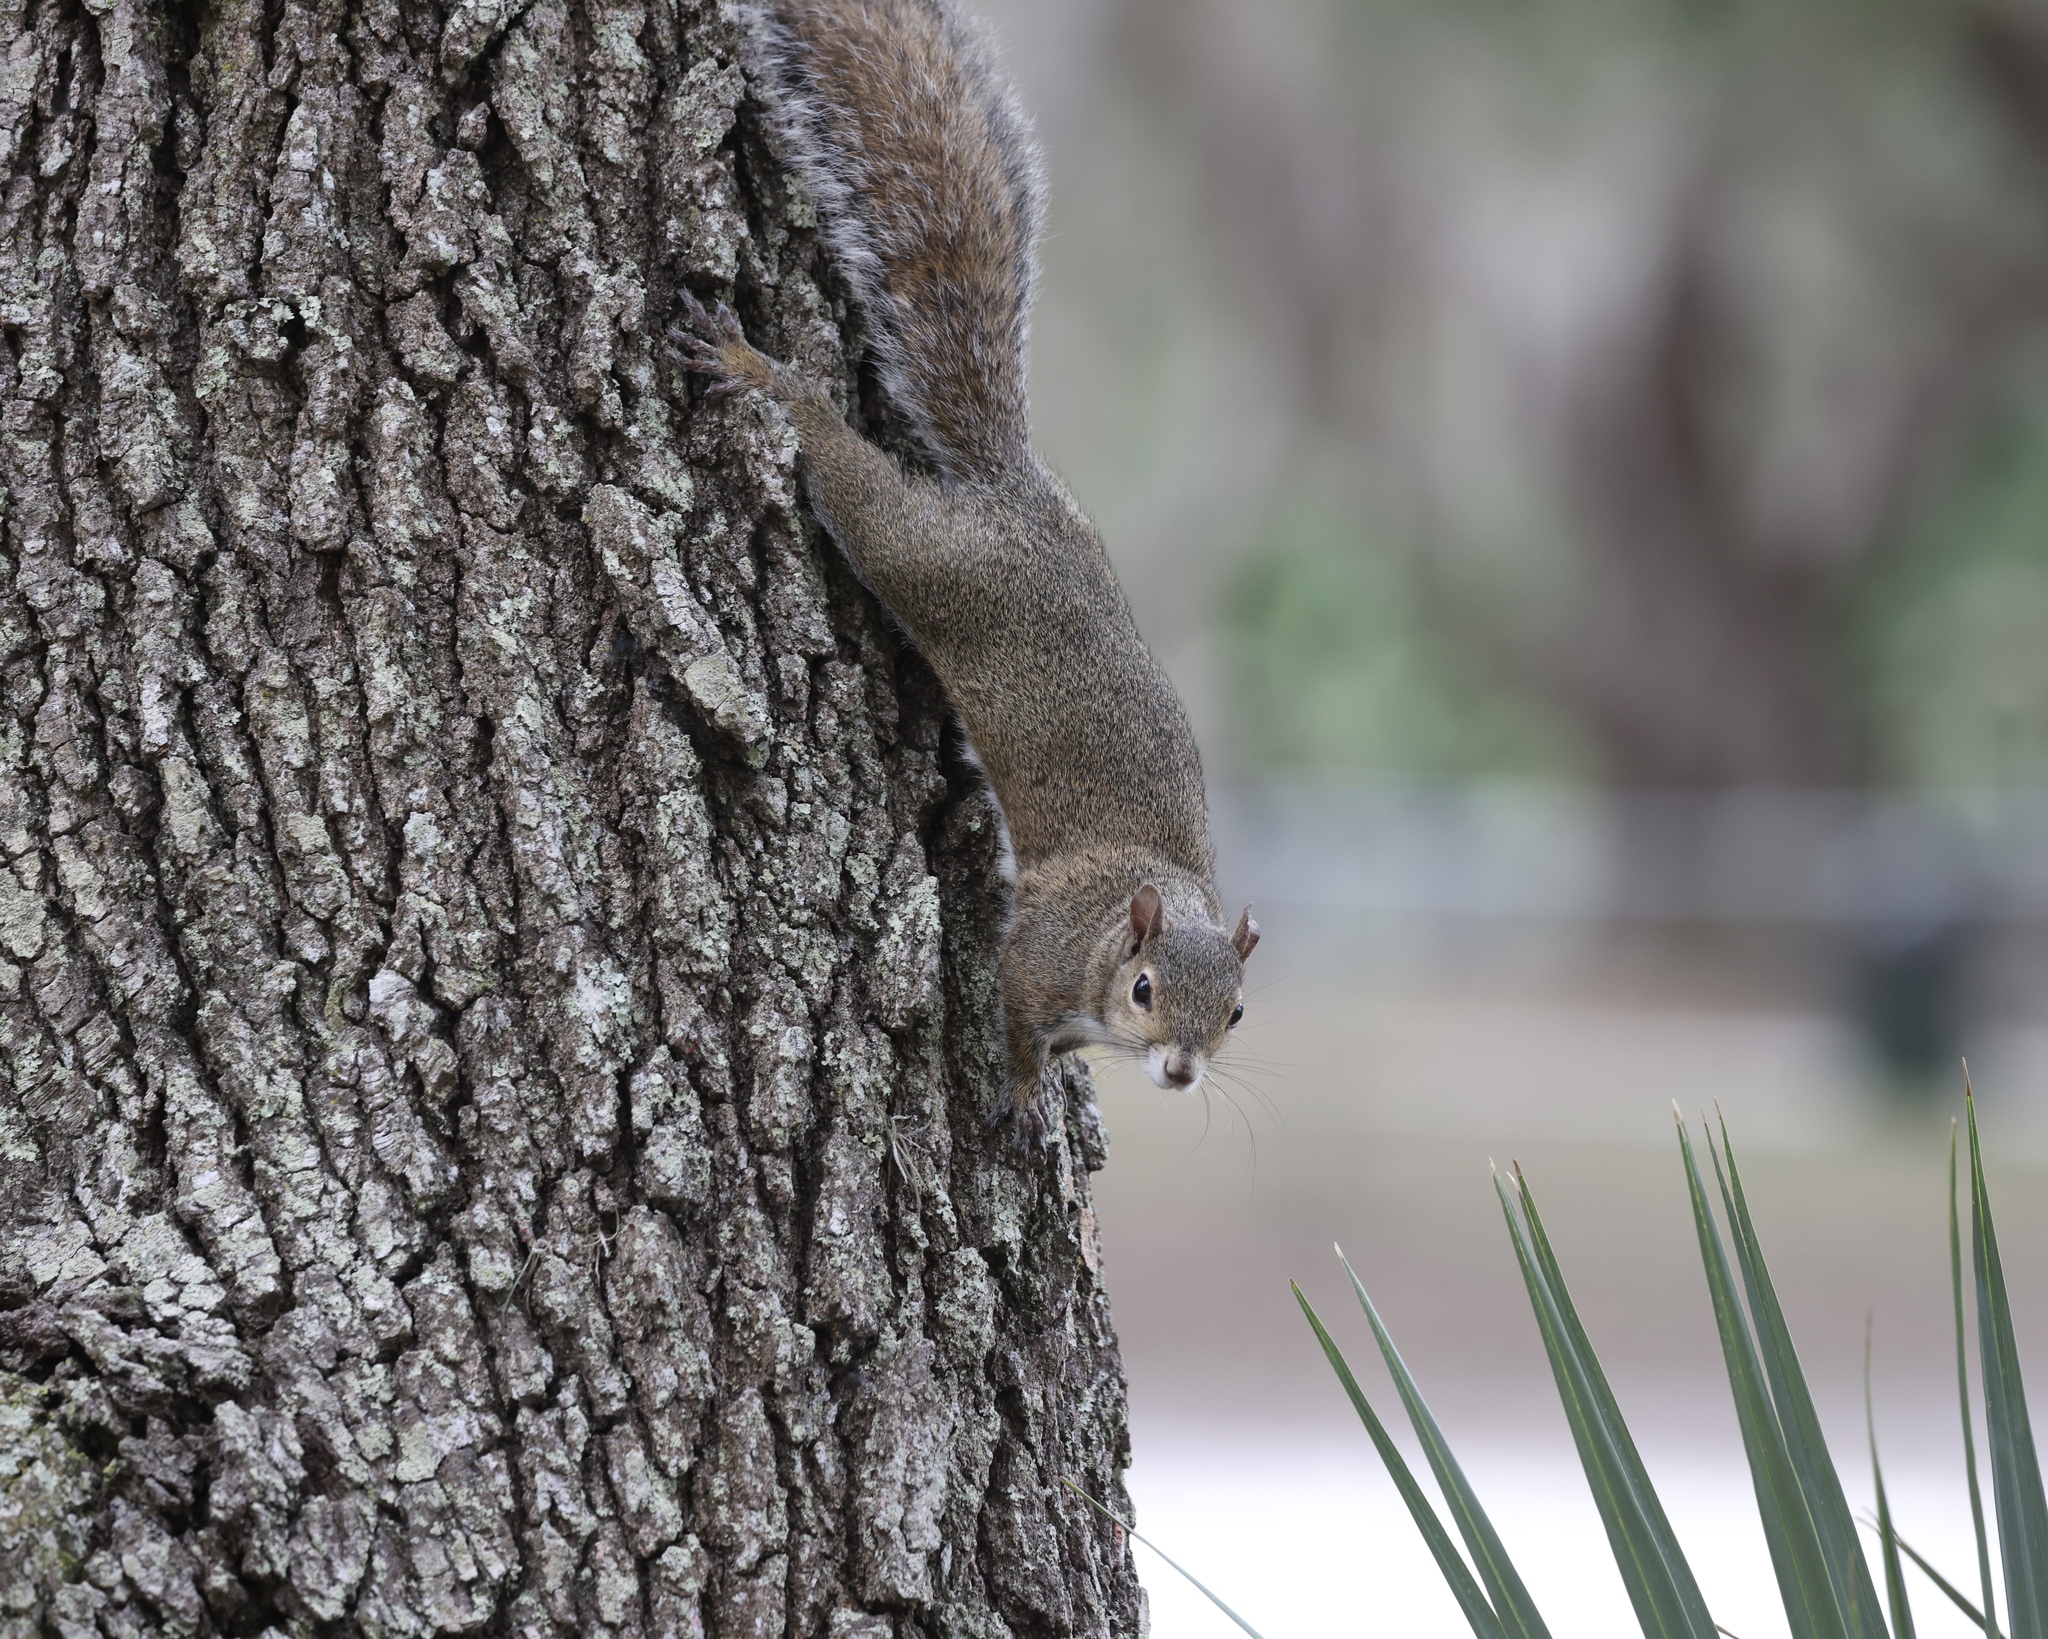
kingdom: Animalia
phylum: Chordata
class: Mammalia
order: Rodentia
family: Sciuridae
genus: Sciurus
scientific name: Sciurus carolinensis
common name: Eastern gray squirrel
